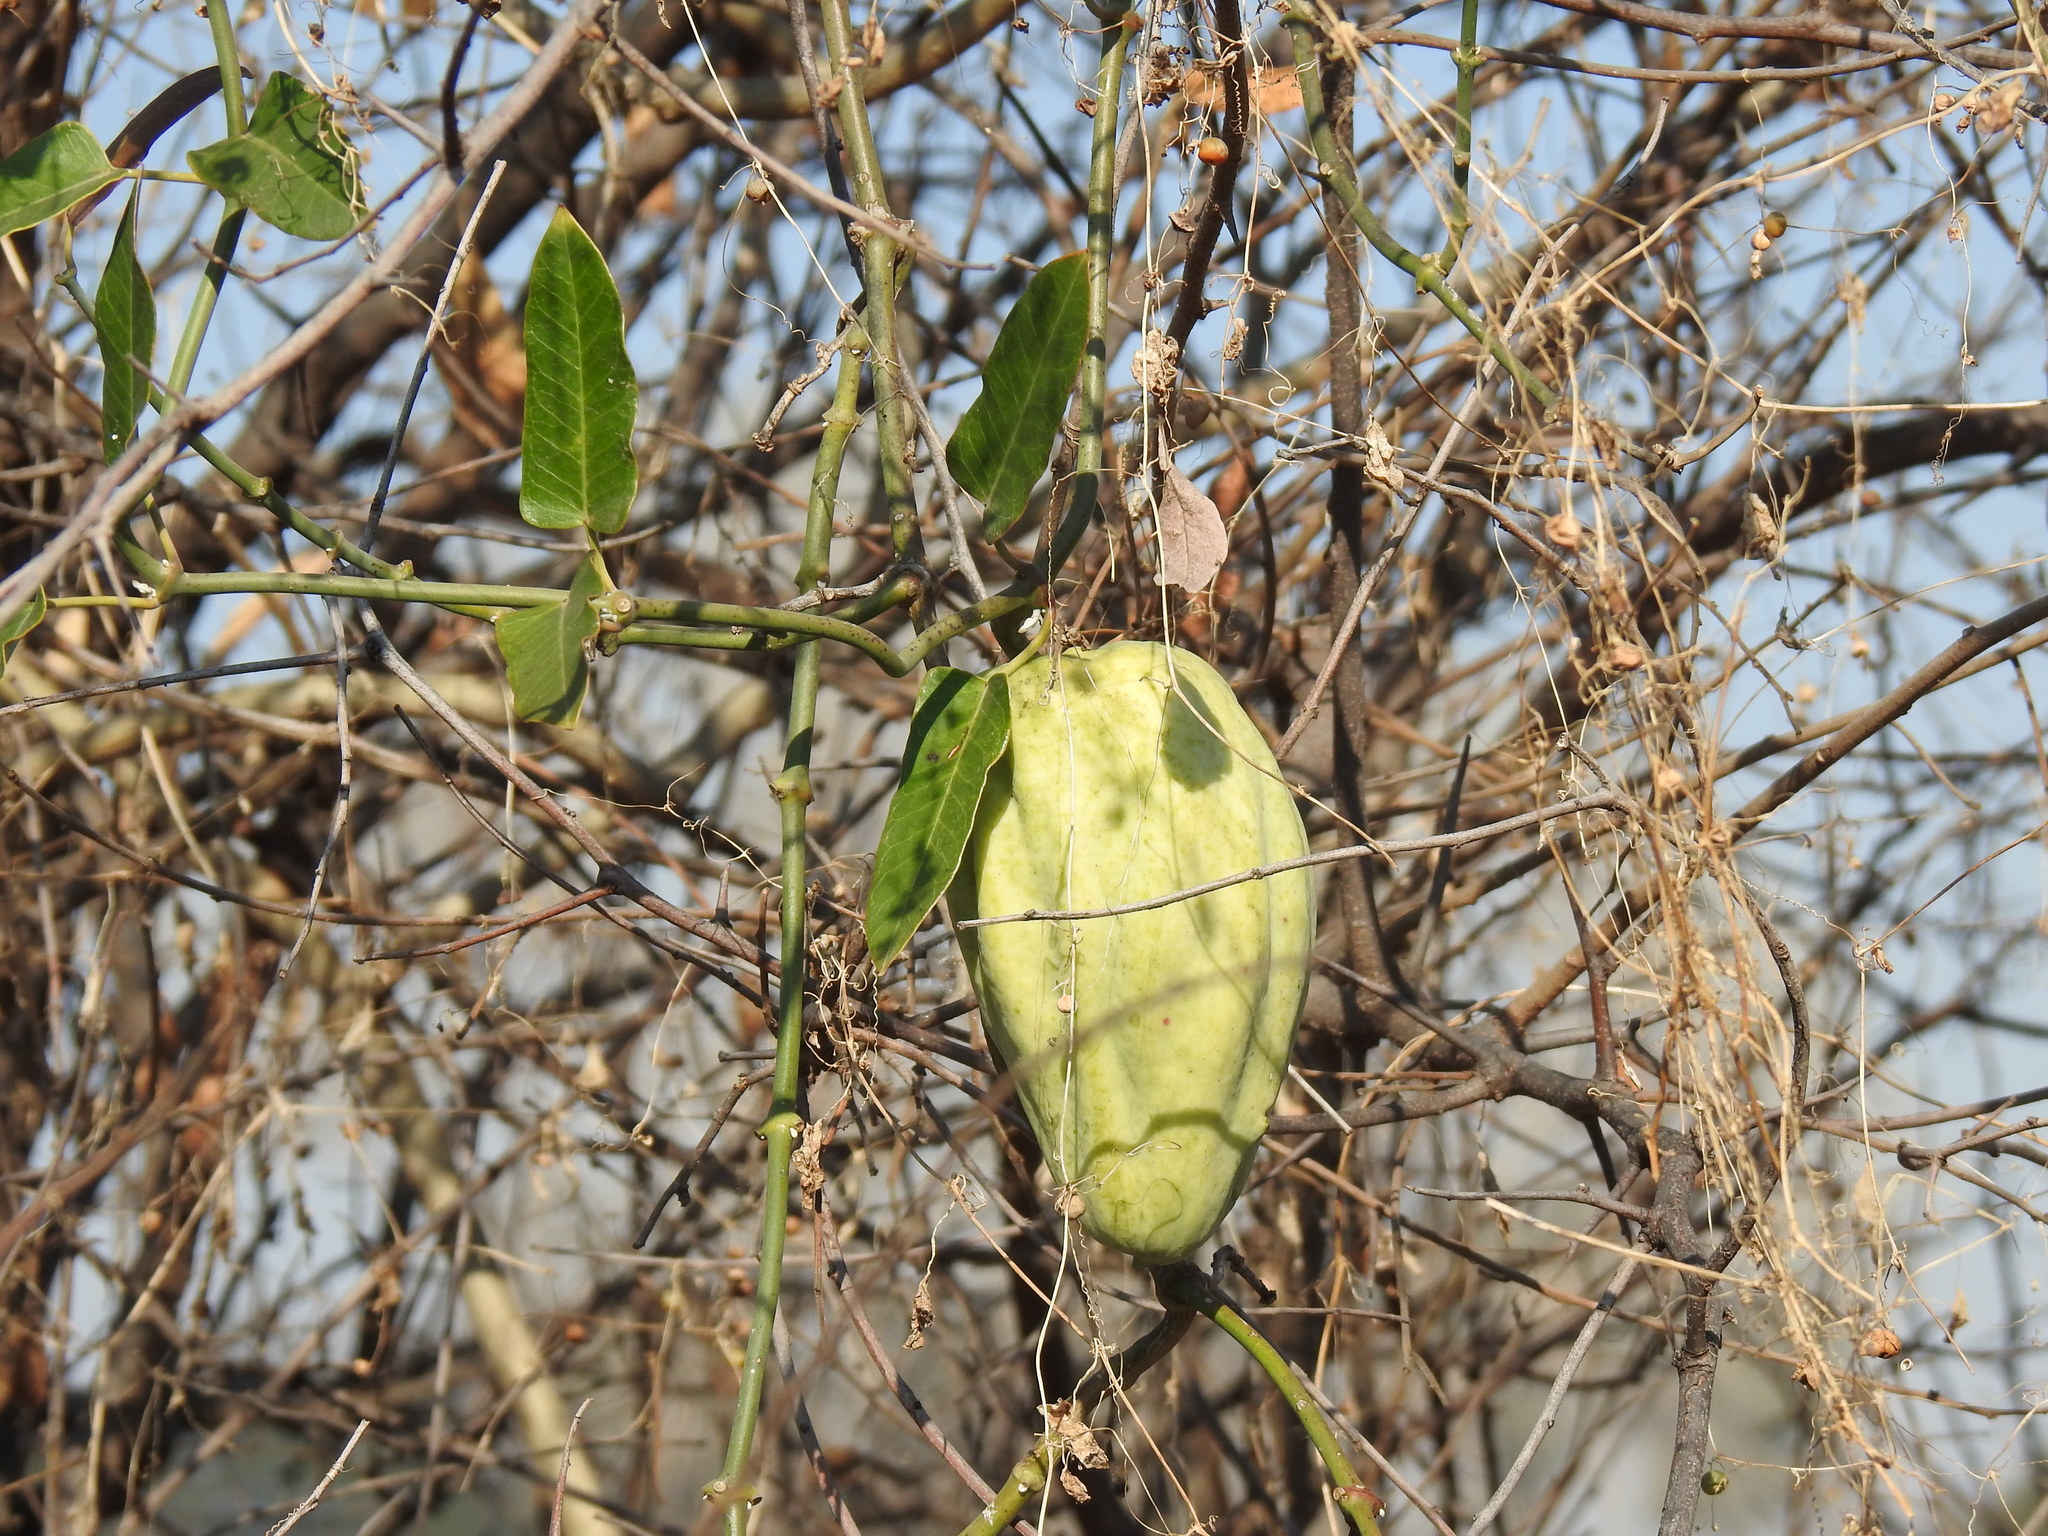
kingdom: Plantae
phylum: Tracheophyta
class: Magnoliopsida
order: Gentianales
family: Apocynaceae
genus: Araujia
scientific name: Araujia sericifera
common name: White bladderflower
